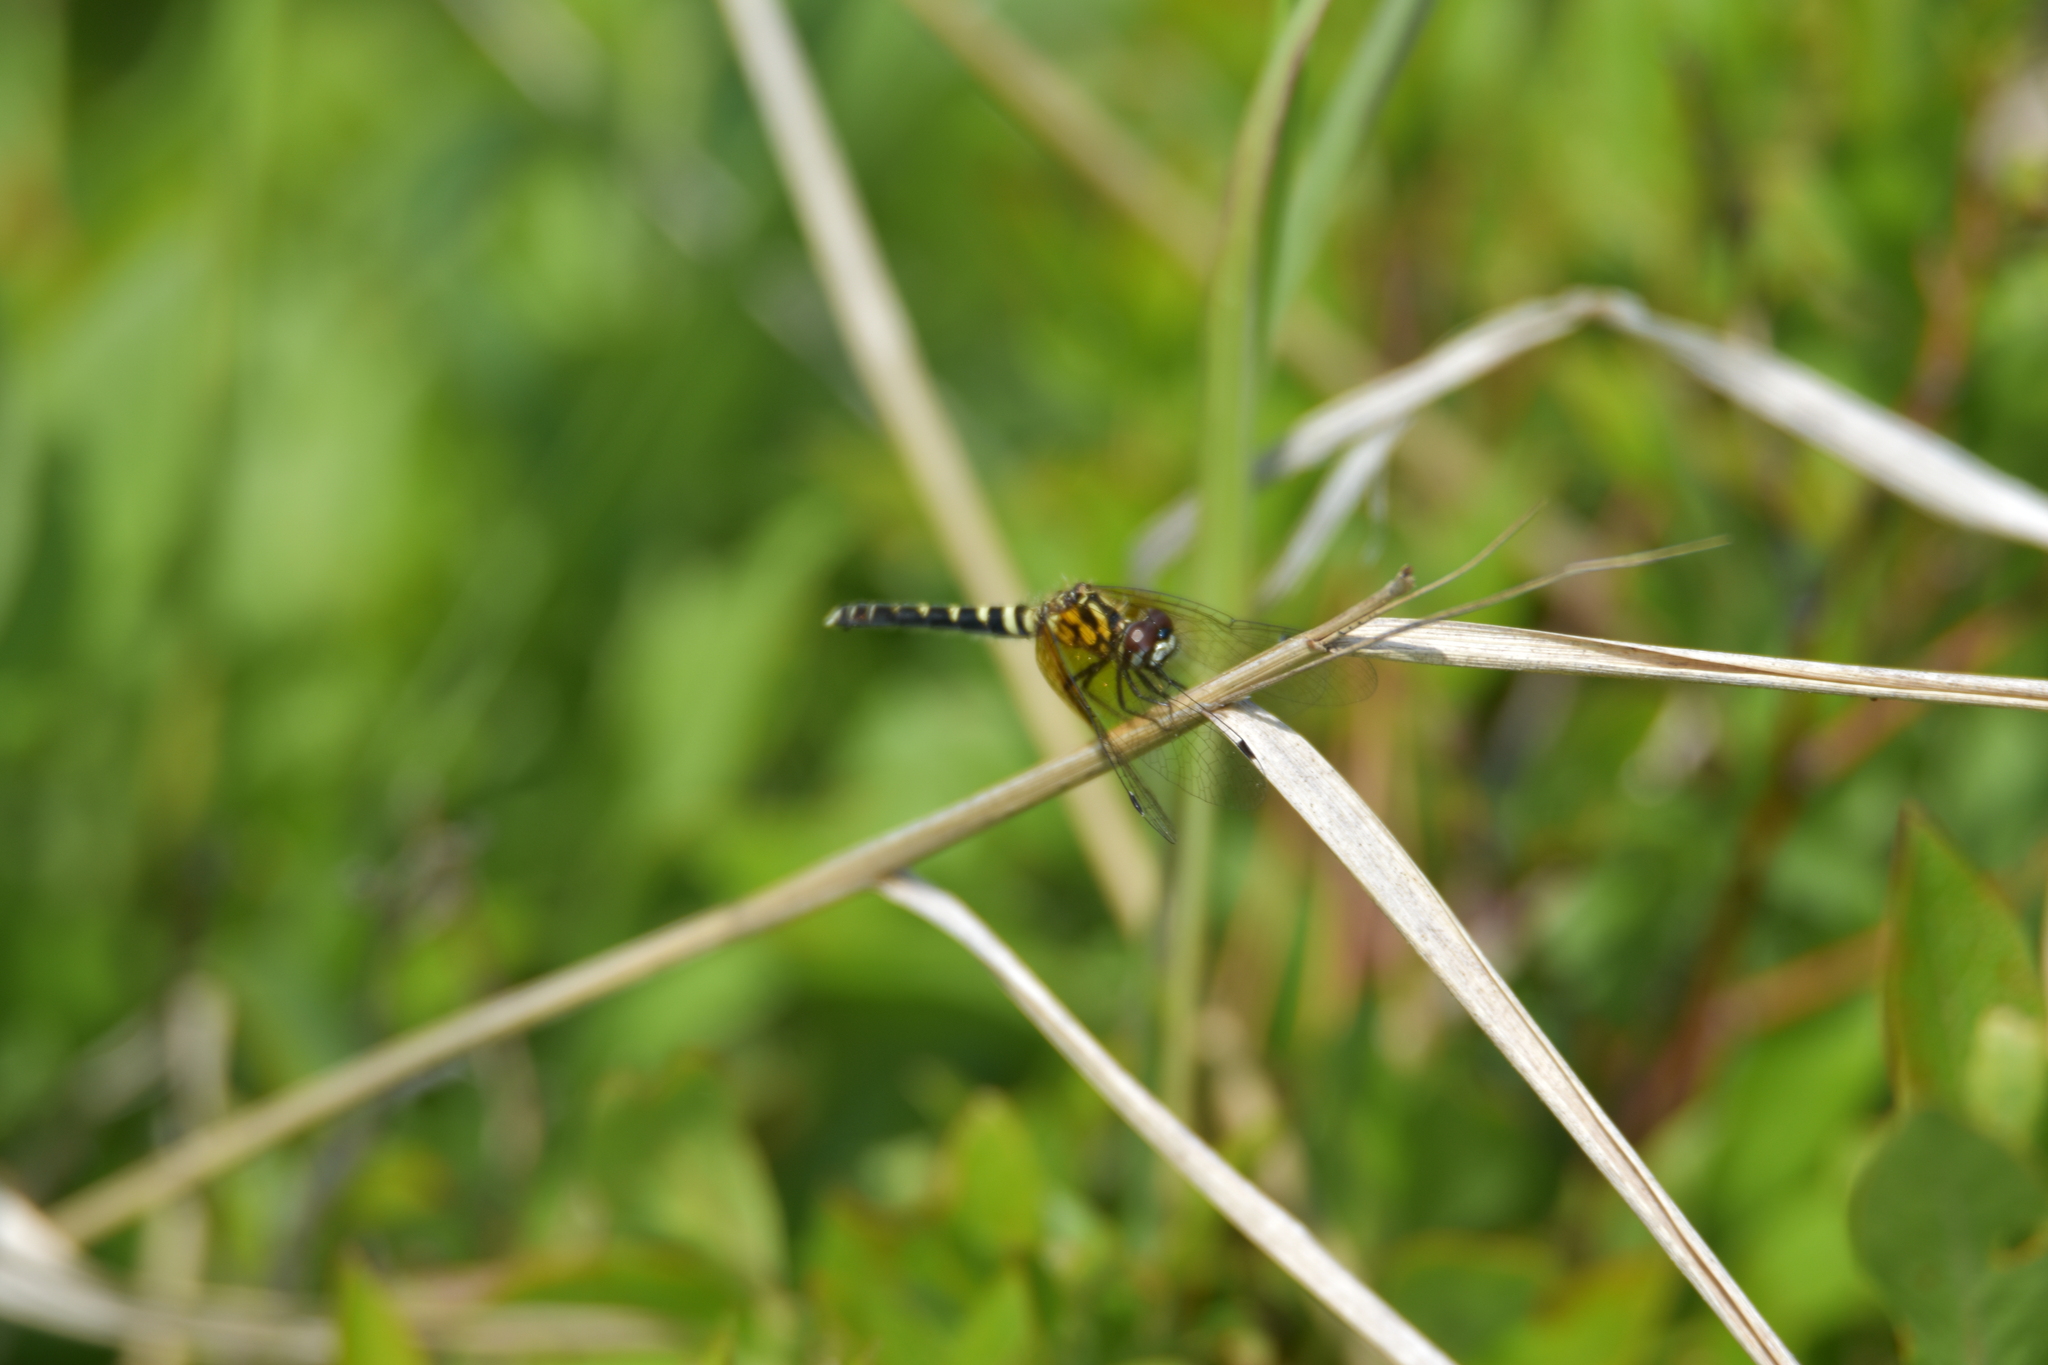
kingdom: Animalia
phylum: Arthropoda
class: Insecta
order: Odonata
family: Libellulidae
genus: Nannothemis
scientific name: Nannothemis bella
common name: Elfin skimmer
